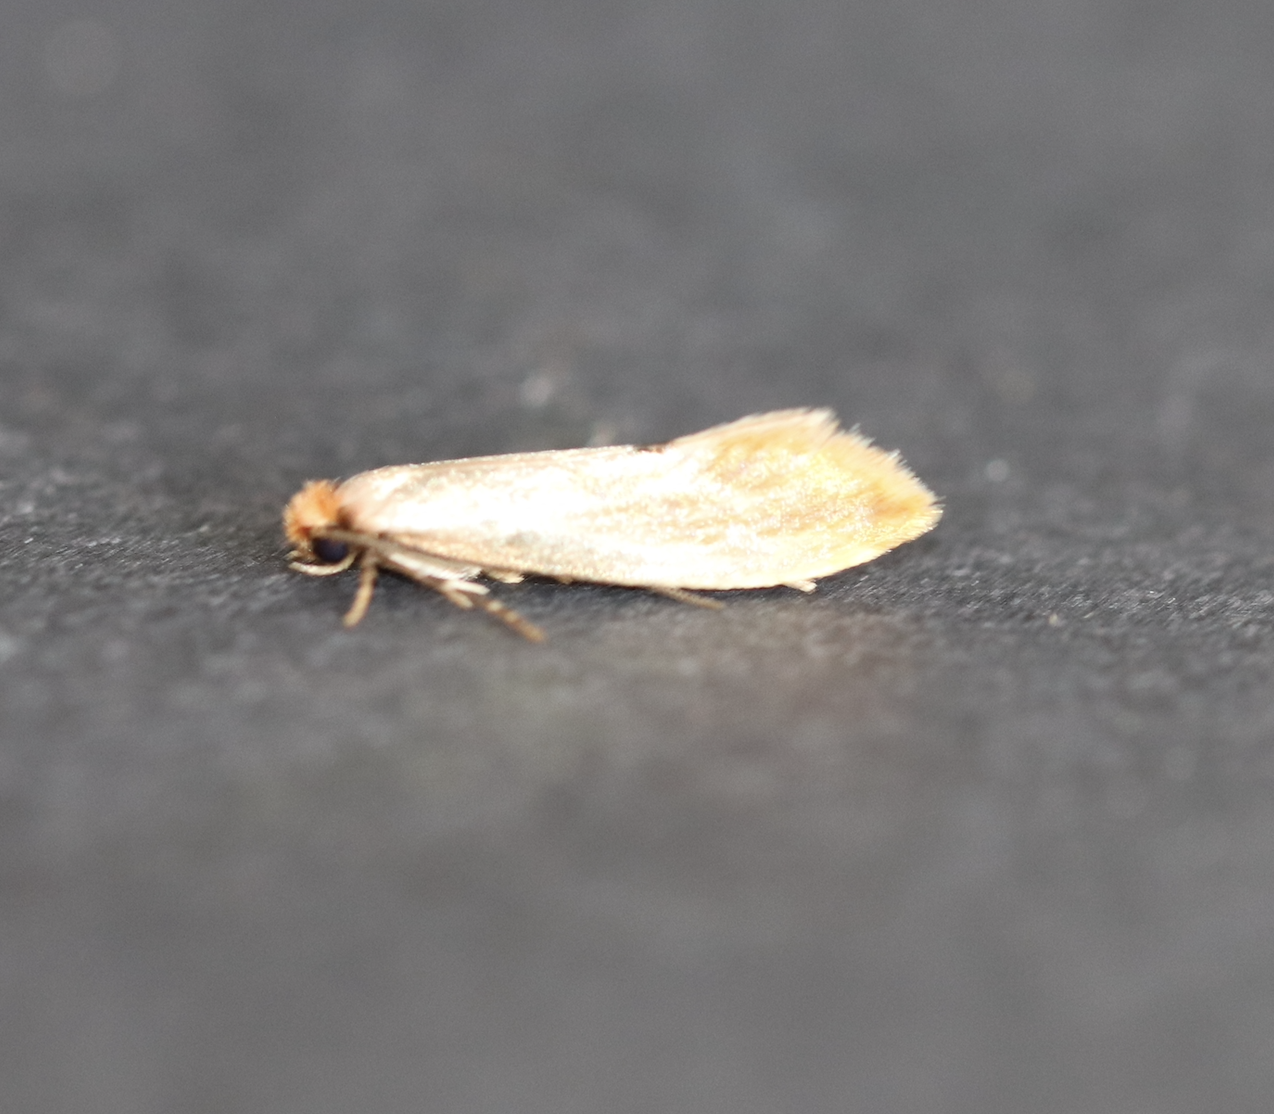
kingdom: Animalia
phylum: Arthropoda
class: Insecta
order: Lepidoptera
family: Tineidae
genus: Tinea
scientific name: Tinea semifulvella
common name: Fulvous clothes
